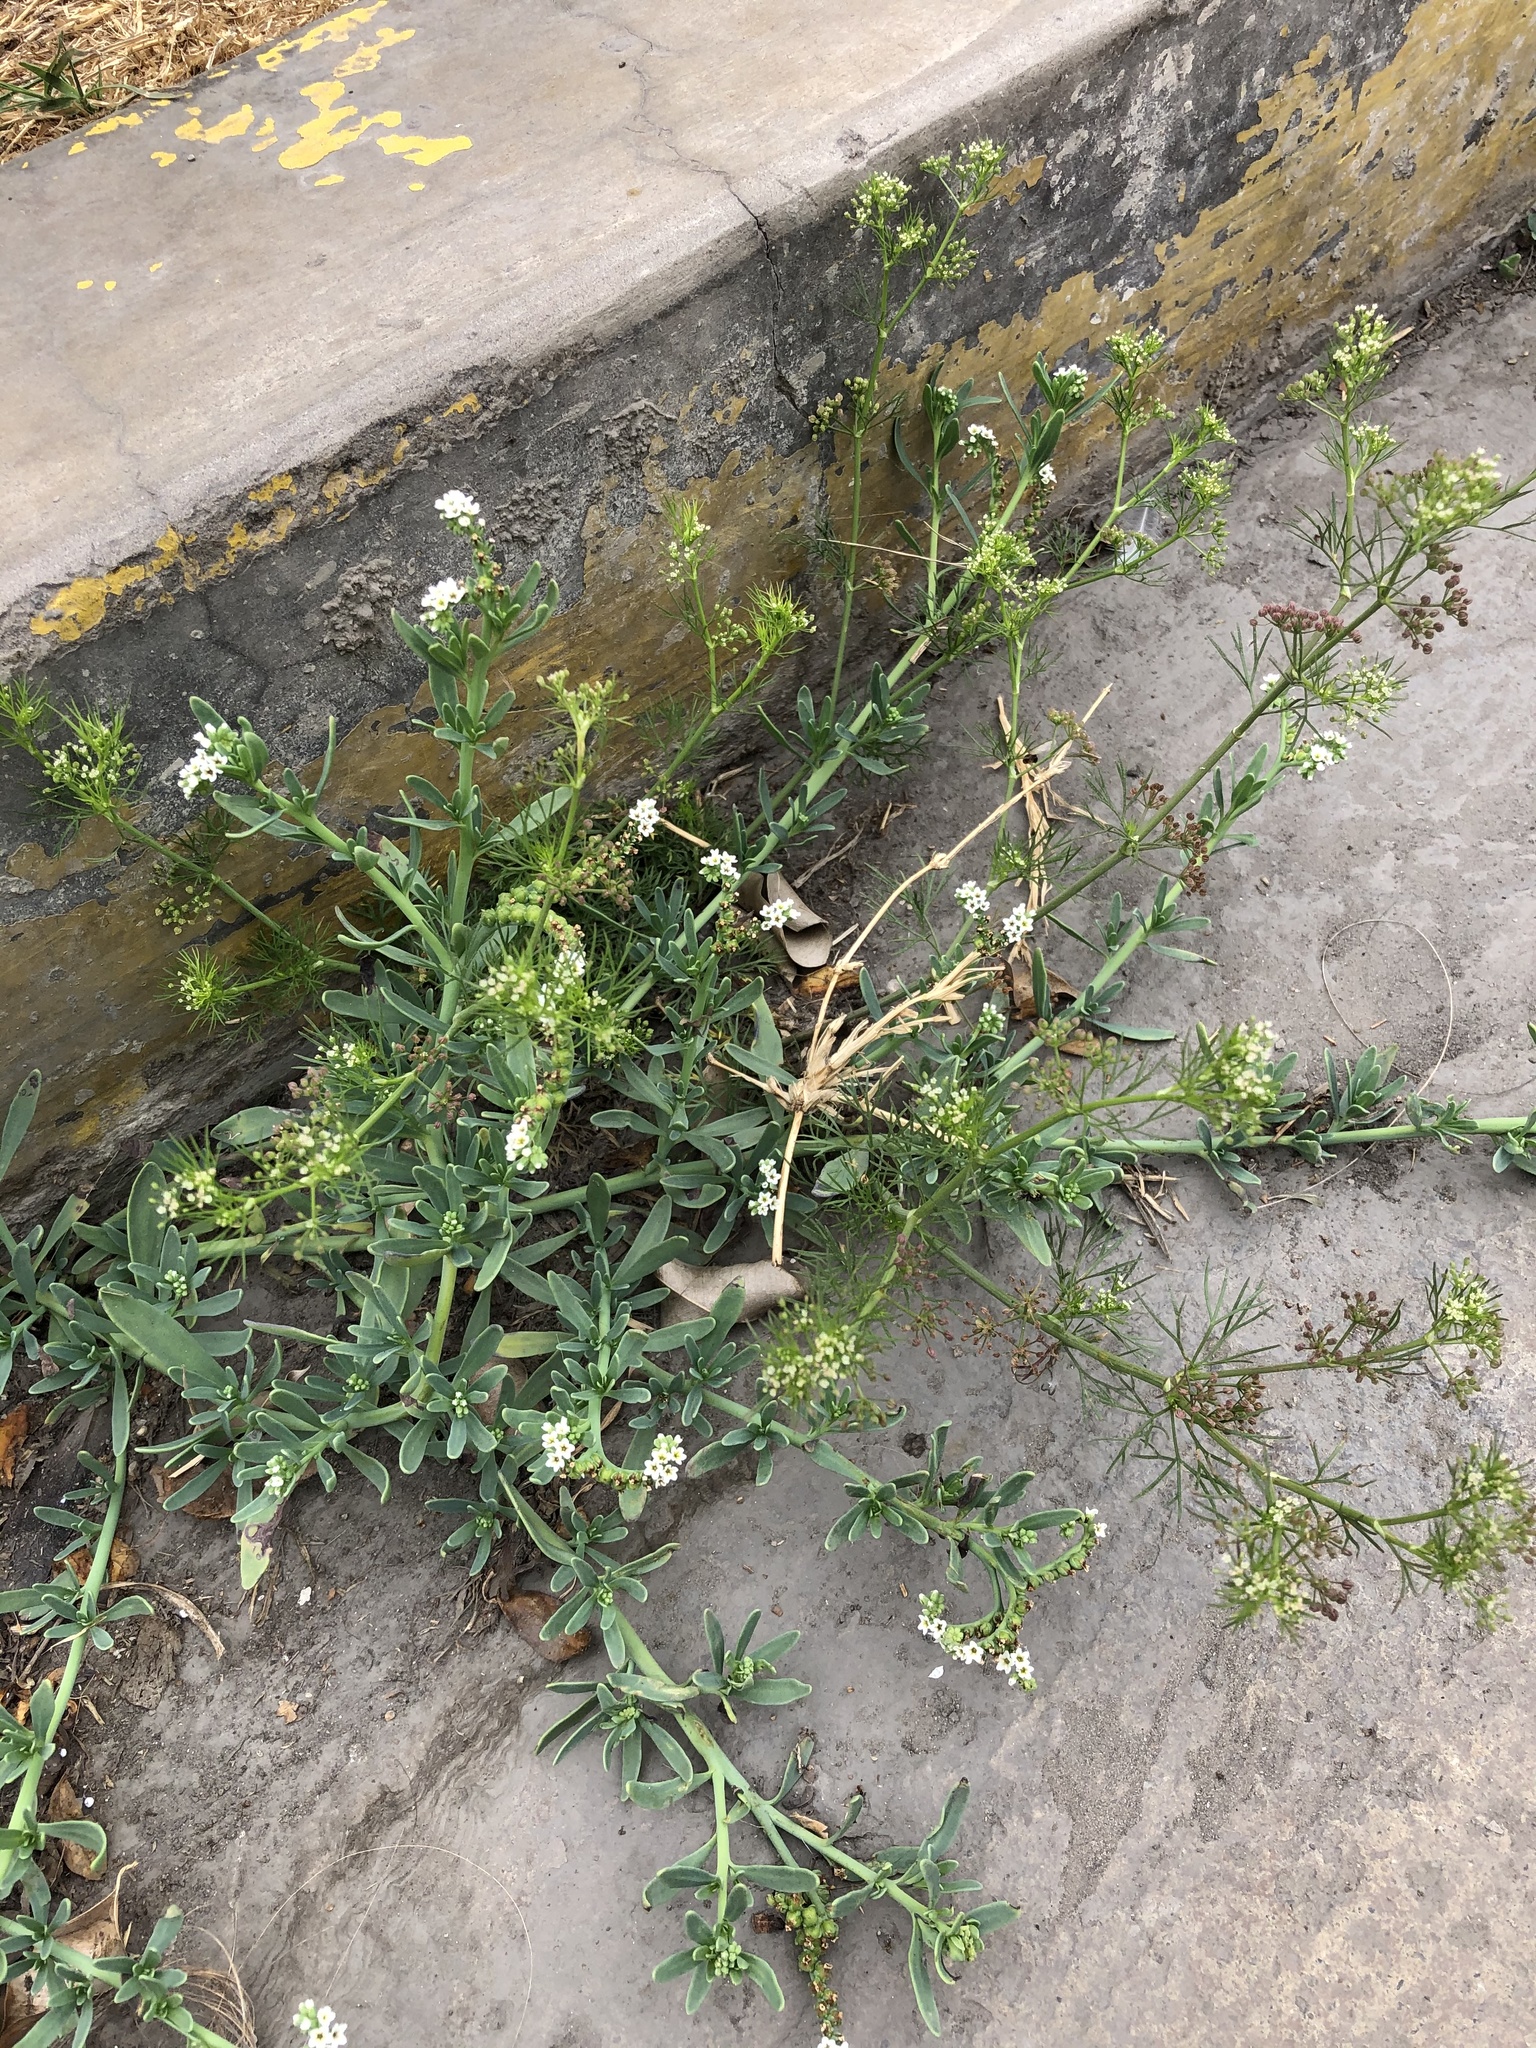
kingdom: Plantae
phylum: Tracheophyta
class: Magnoliopsida
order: Boraginales
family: Heliotropiaceae
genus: Heliotropium
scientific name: Heliotropium curassavicum
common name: Seaside heliotrope
